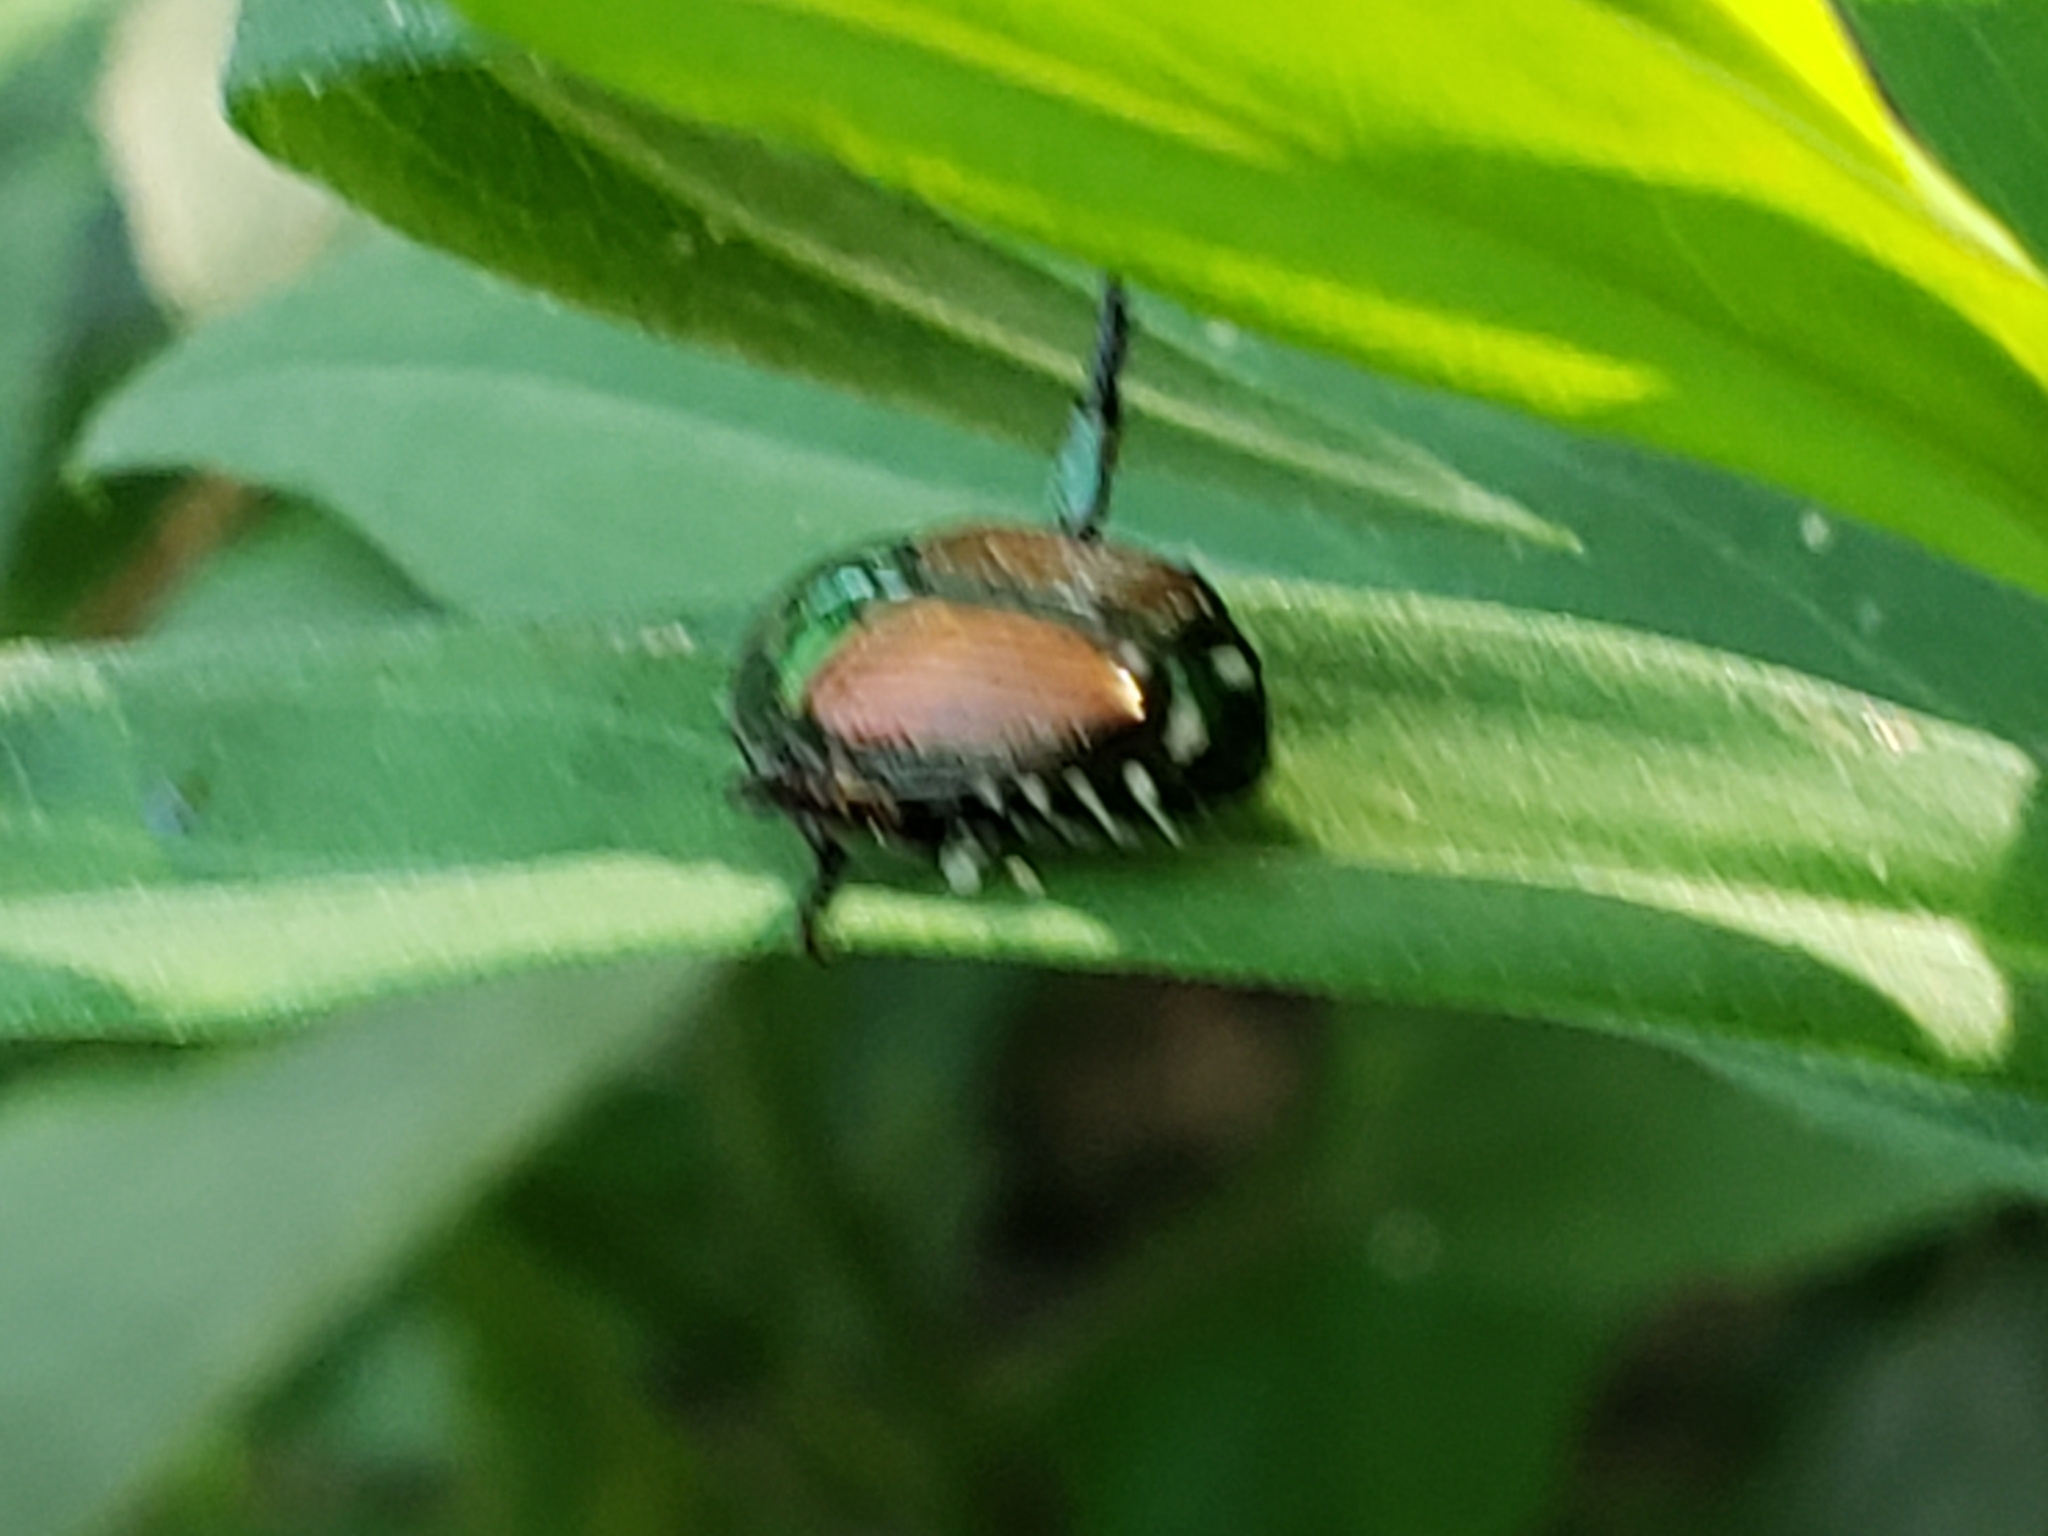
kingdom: Animalia
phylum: Arthropoda
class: Insecta
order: Coleoptera
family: Scarabaeidae
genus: Popillia
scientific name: Popillia japonica
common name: Japanese beetle
